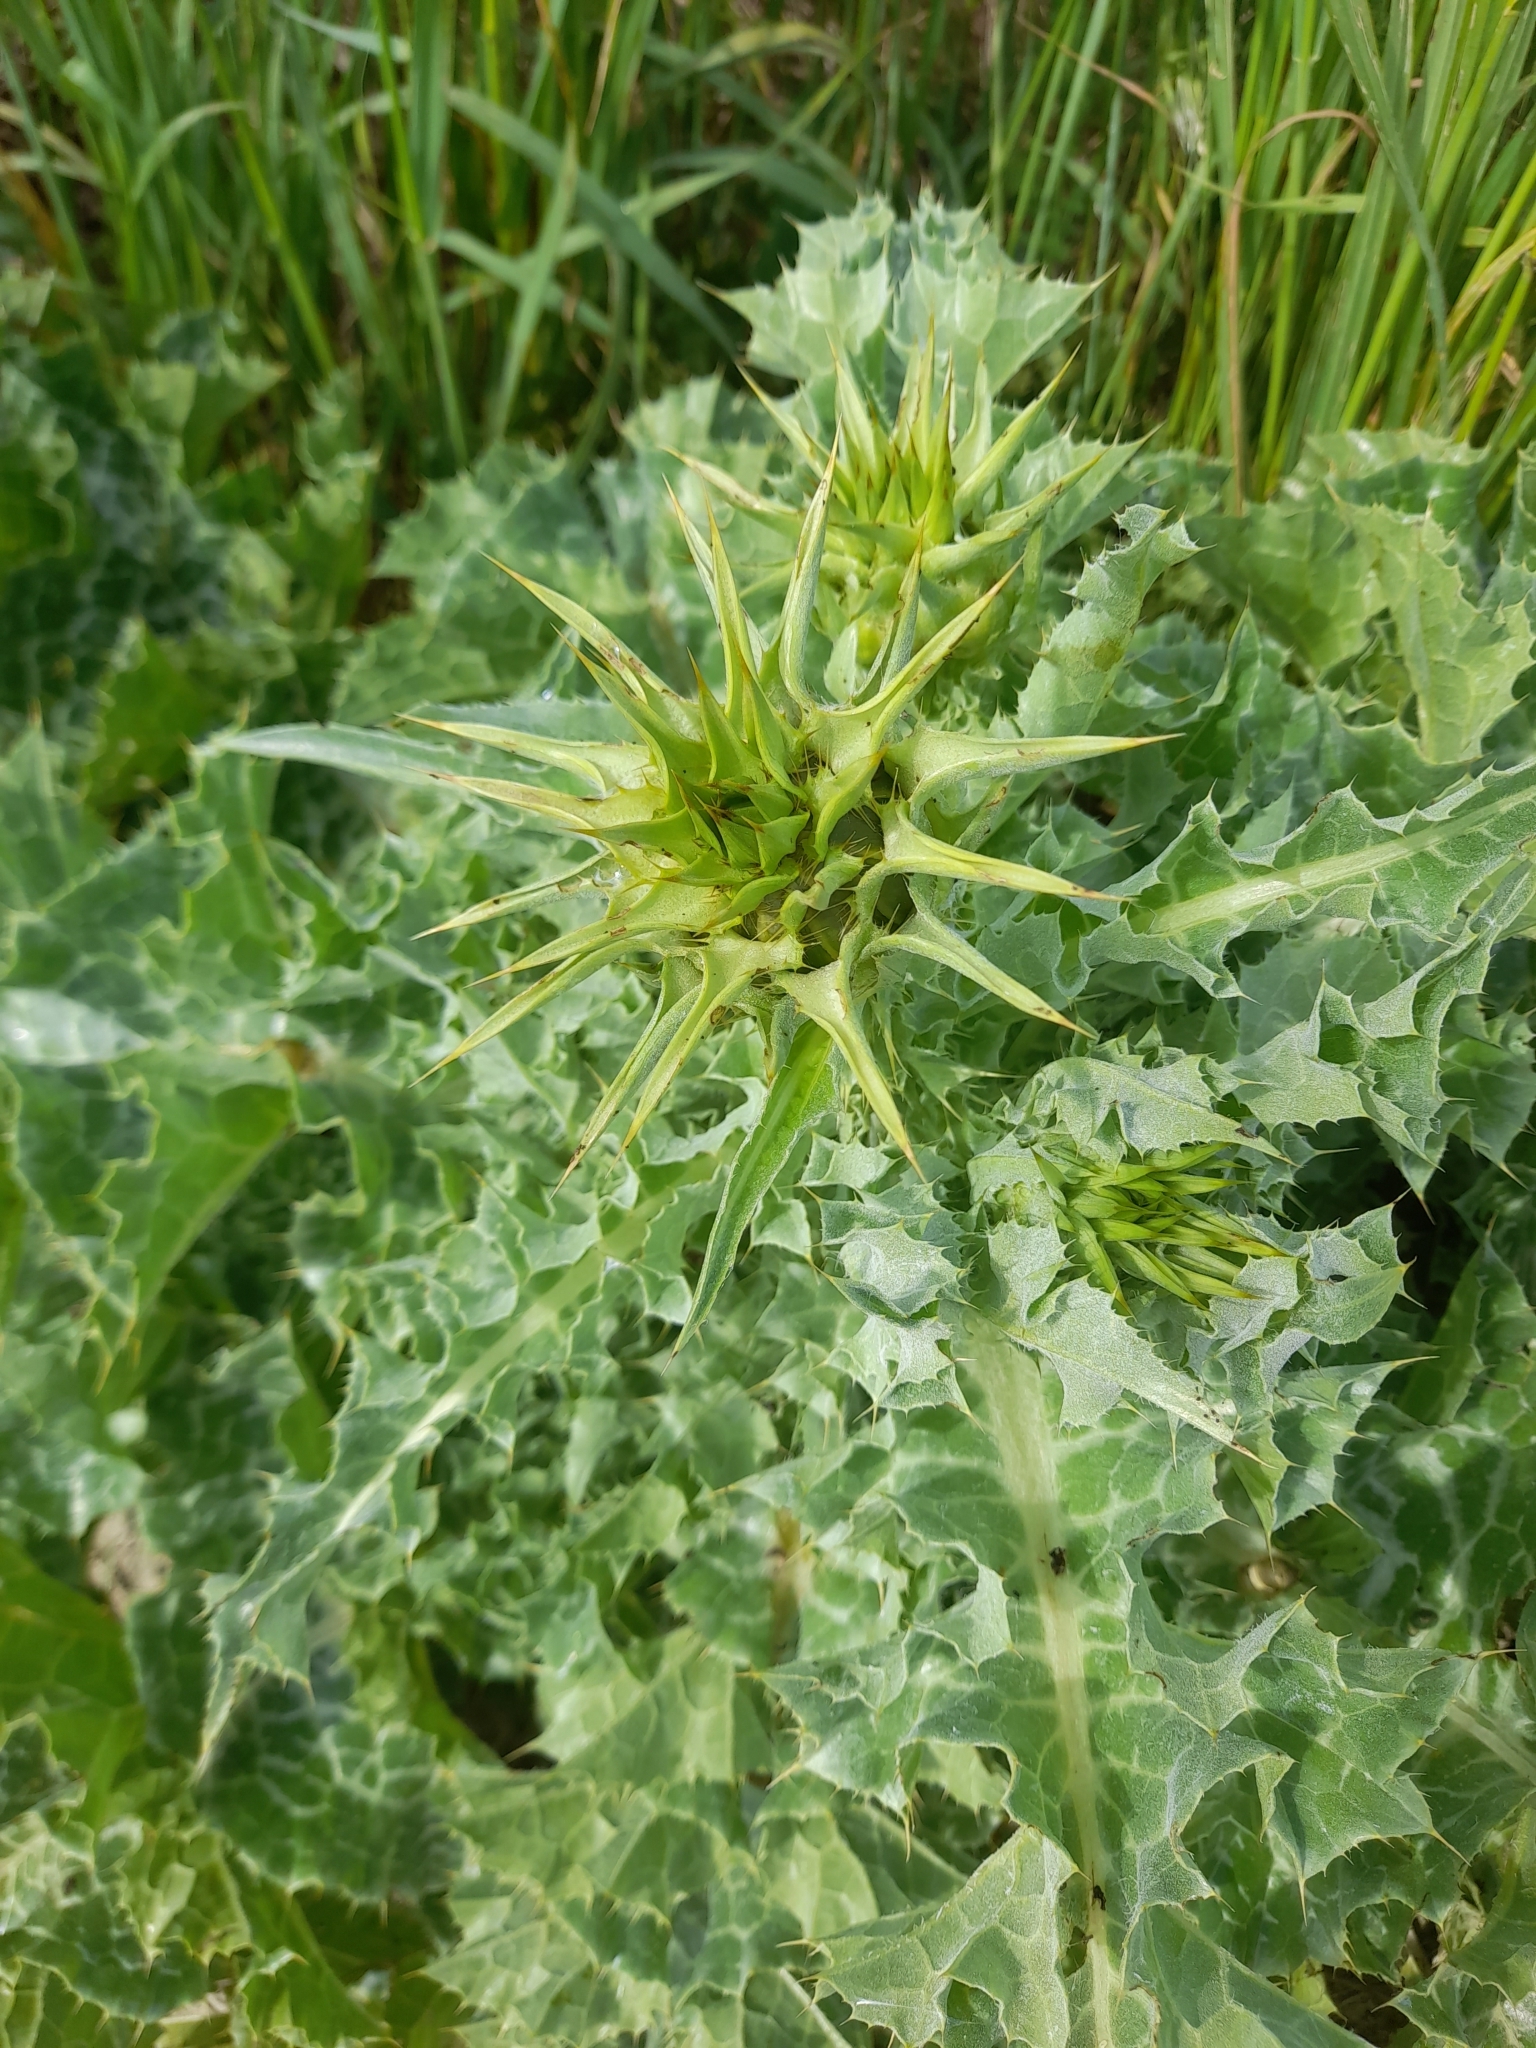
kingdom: Plantae
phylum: Tracheophyta
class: Magnoliopsida
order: Asterales
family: Asteraceae
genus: Silybum
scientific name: Silybum marianum
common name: Milk thistle
